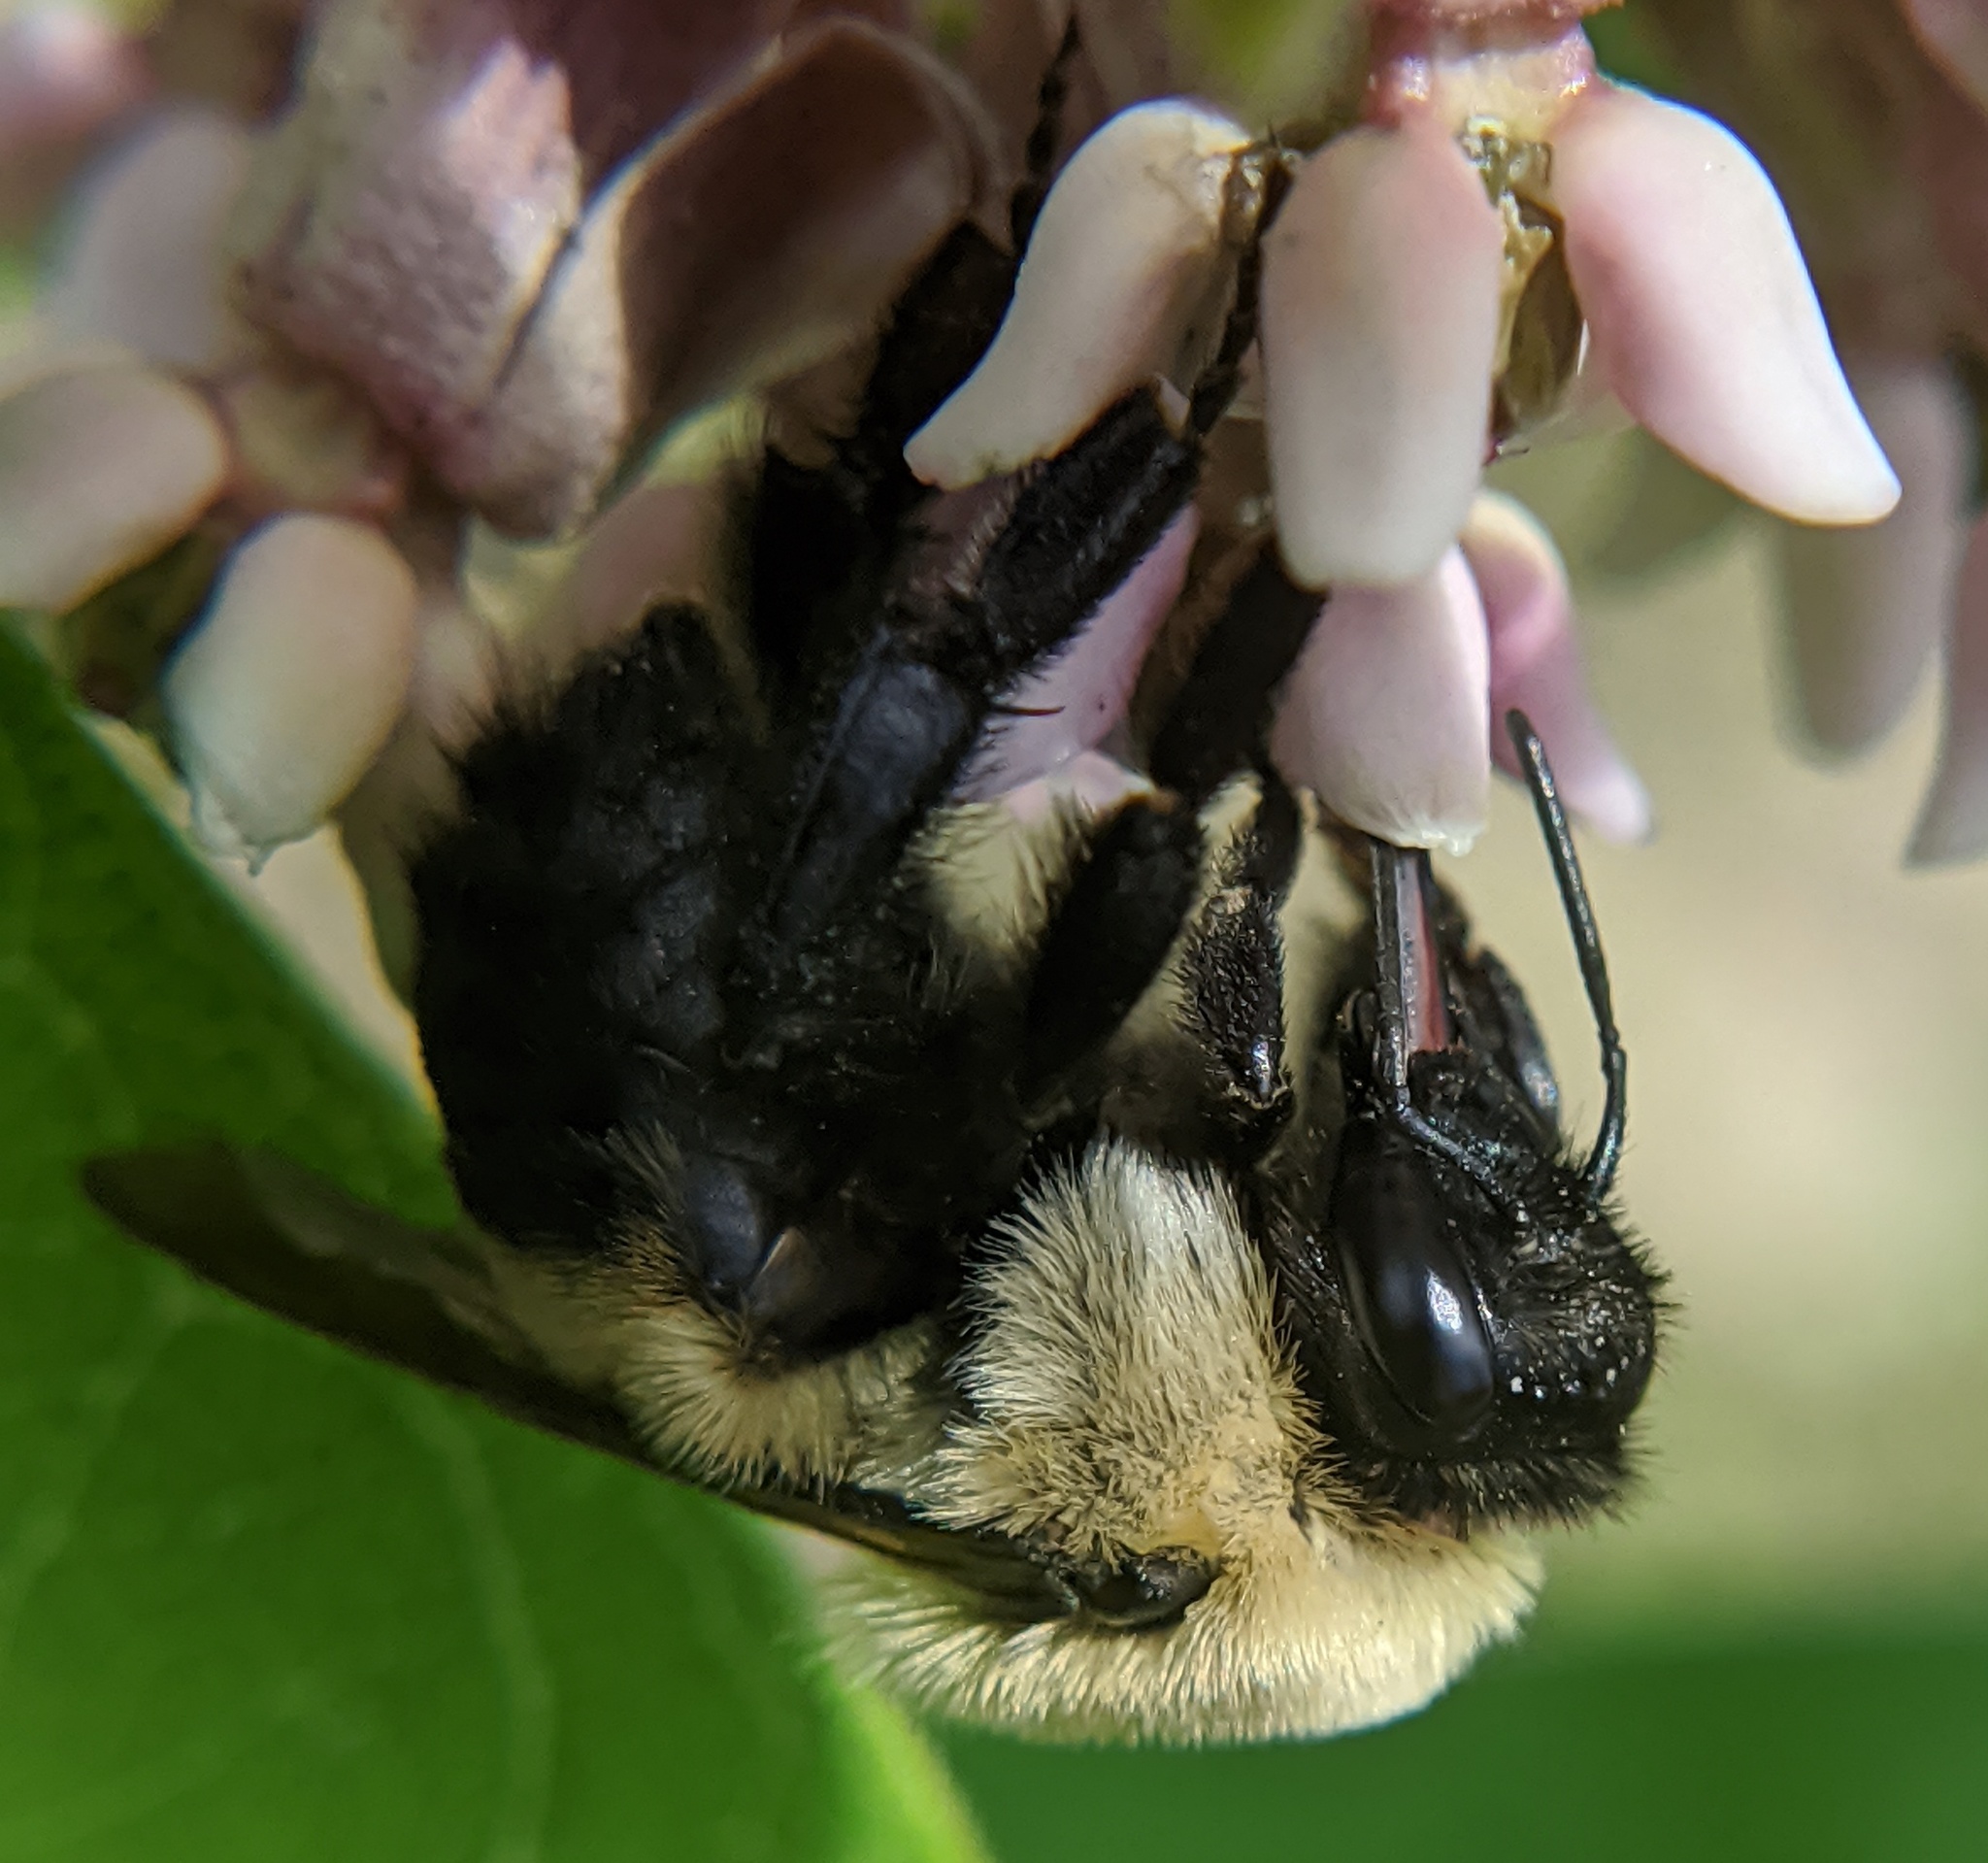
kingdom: Animalia
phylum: Arthropoda
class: Insecta
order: Hymenoptera
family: Apidae
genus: Bombus
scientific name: Bombus griseocollis
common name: Brown-belted bumble bee
